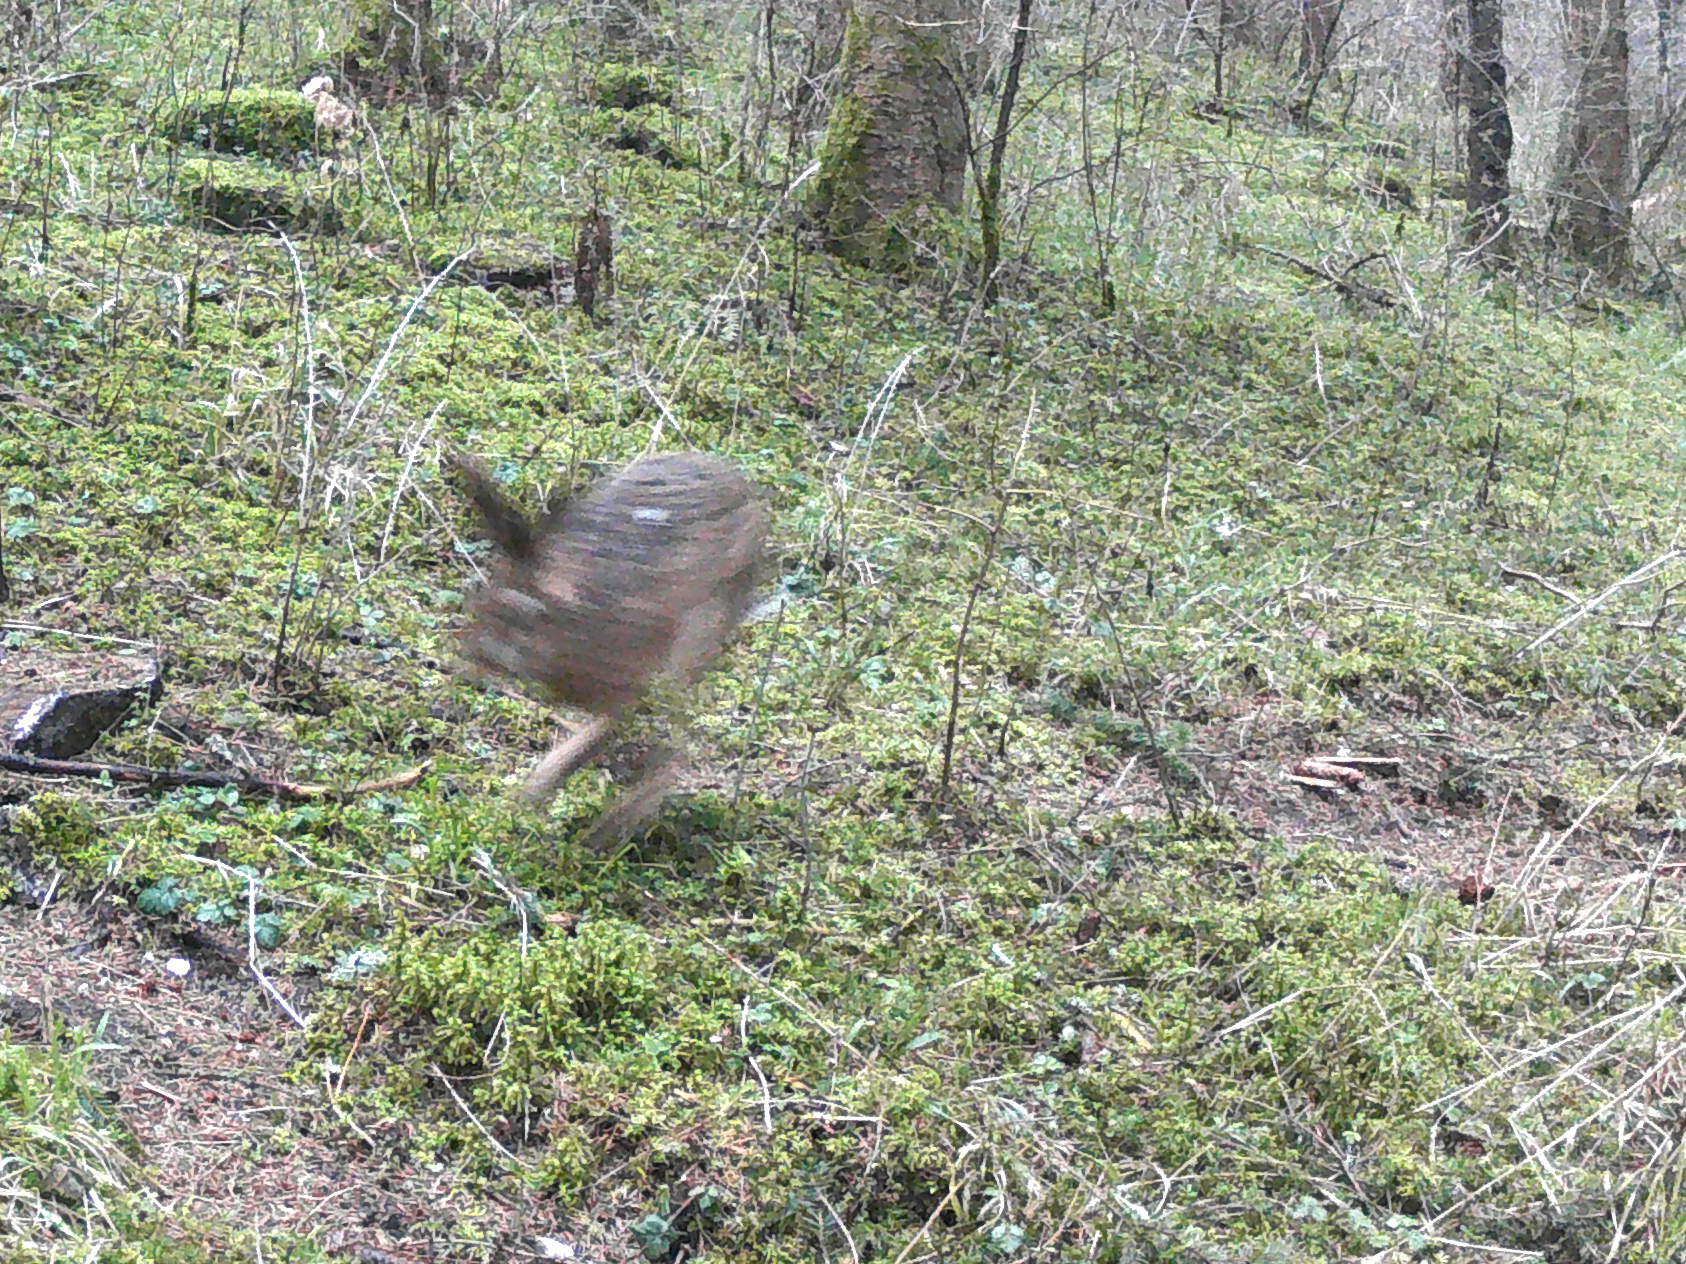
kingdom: Animalia
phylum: Chordata
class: Mammalia
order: Lagomorpha
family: Leporidae
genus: Lepus
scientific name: Lepus europaeus
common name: European hare
